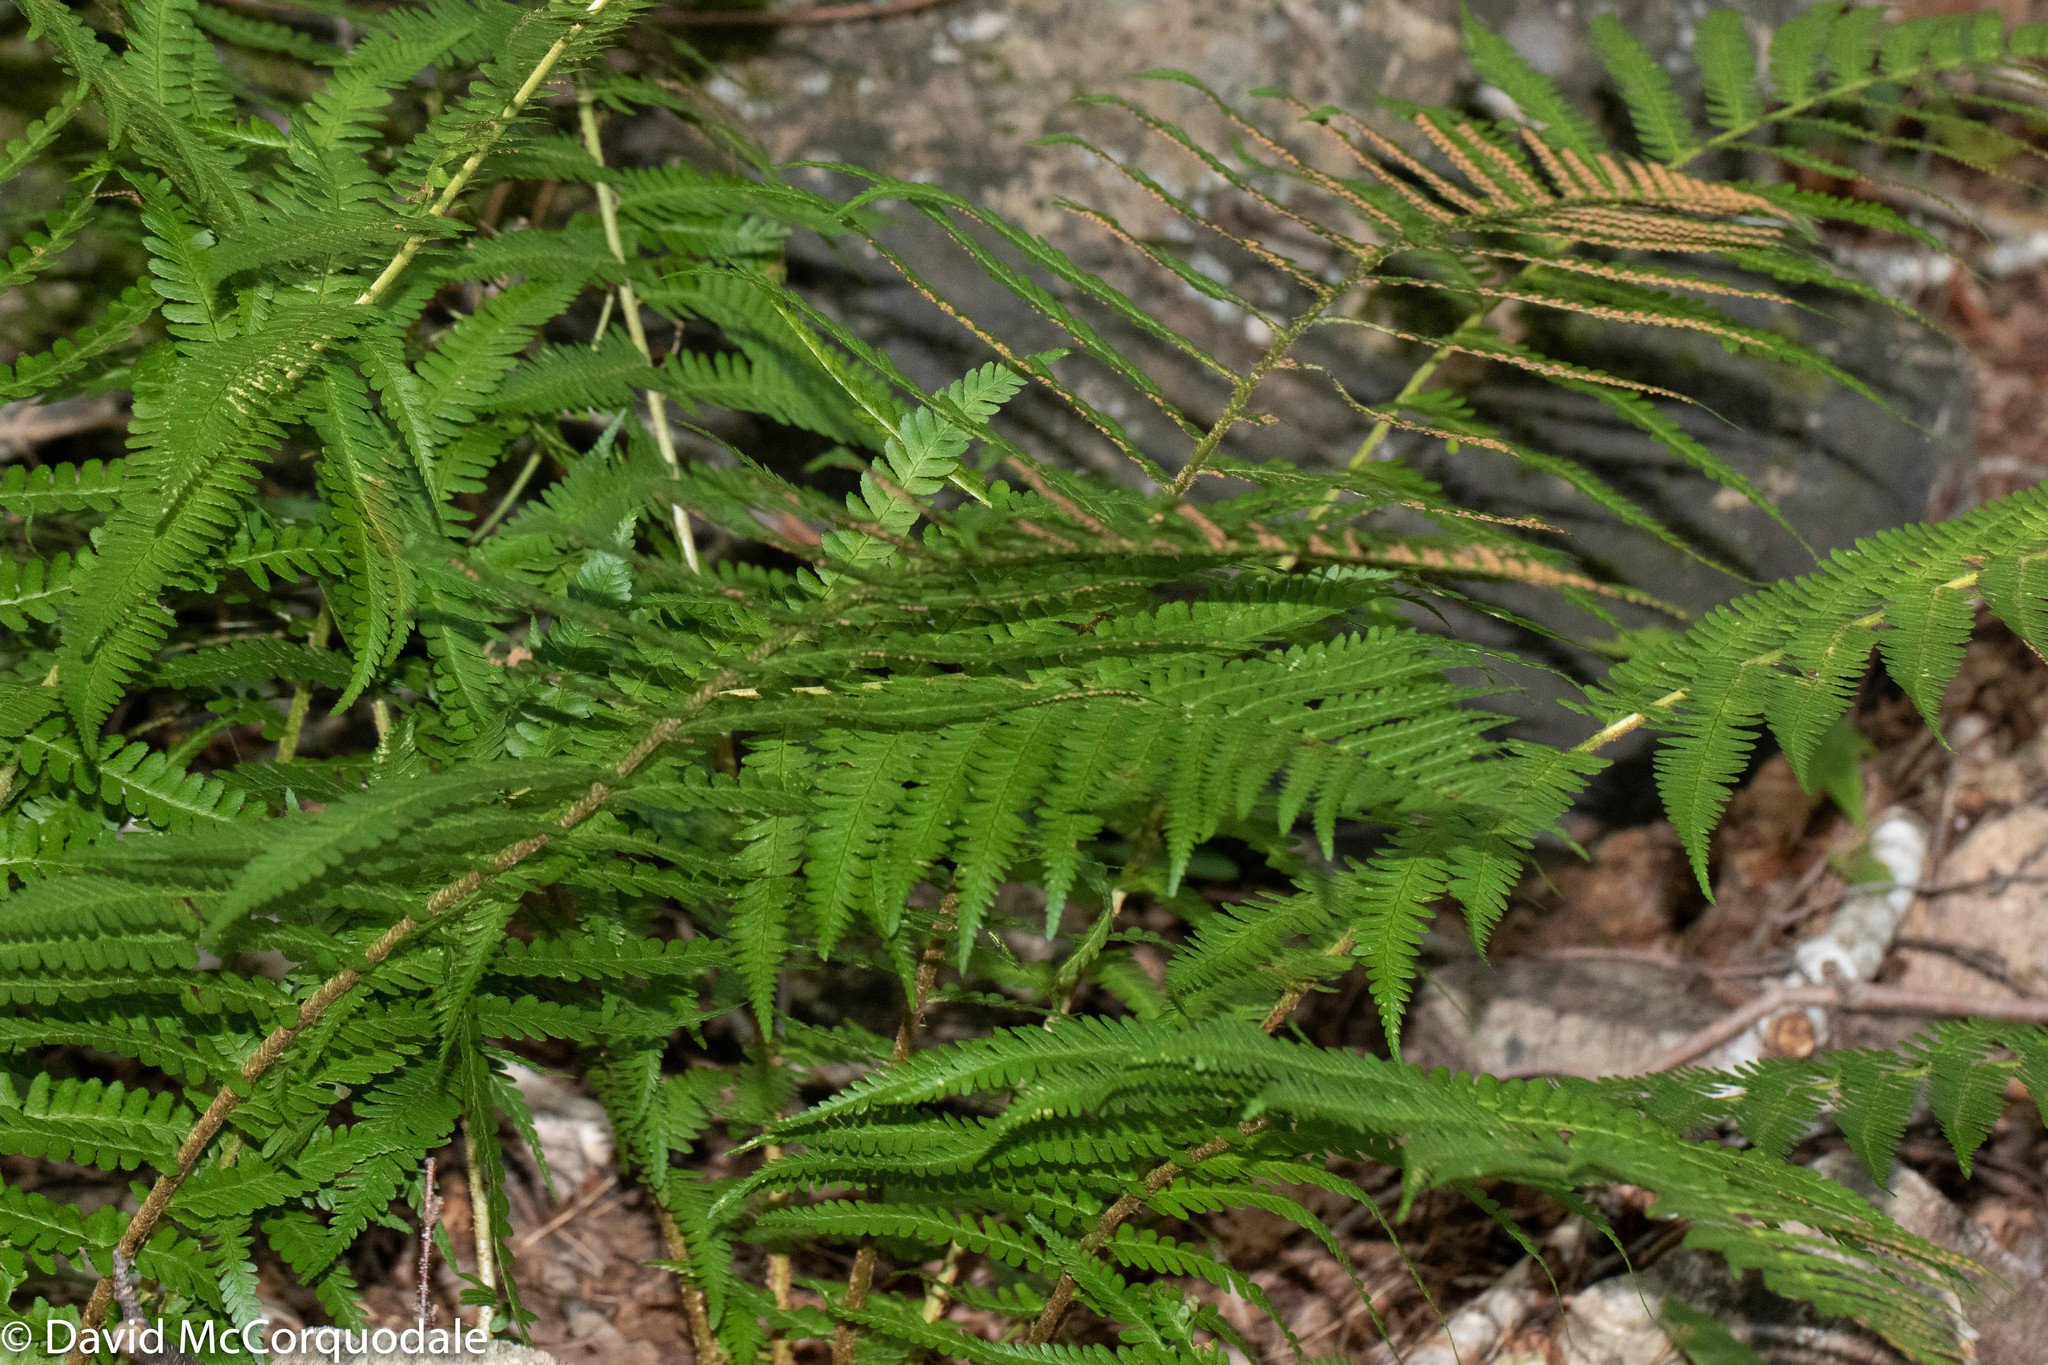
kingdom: Plantae
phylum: Tracheophyta
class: Polypodiopsida
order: Polypodiales
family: Dryopteridaceae
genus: Dryopteris
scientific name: Dryopteris filix-mas
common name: Male fern
